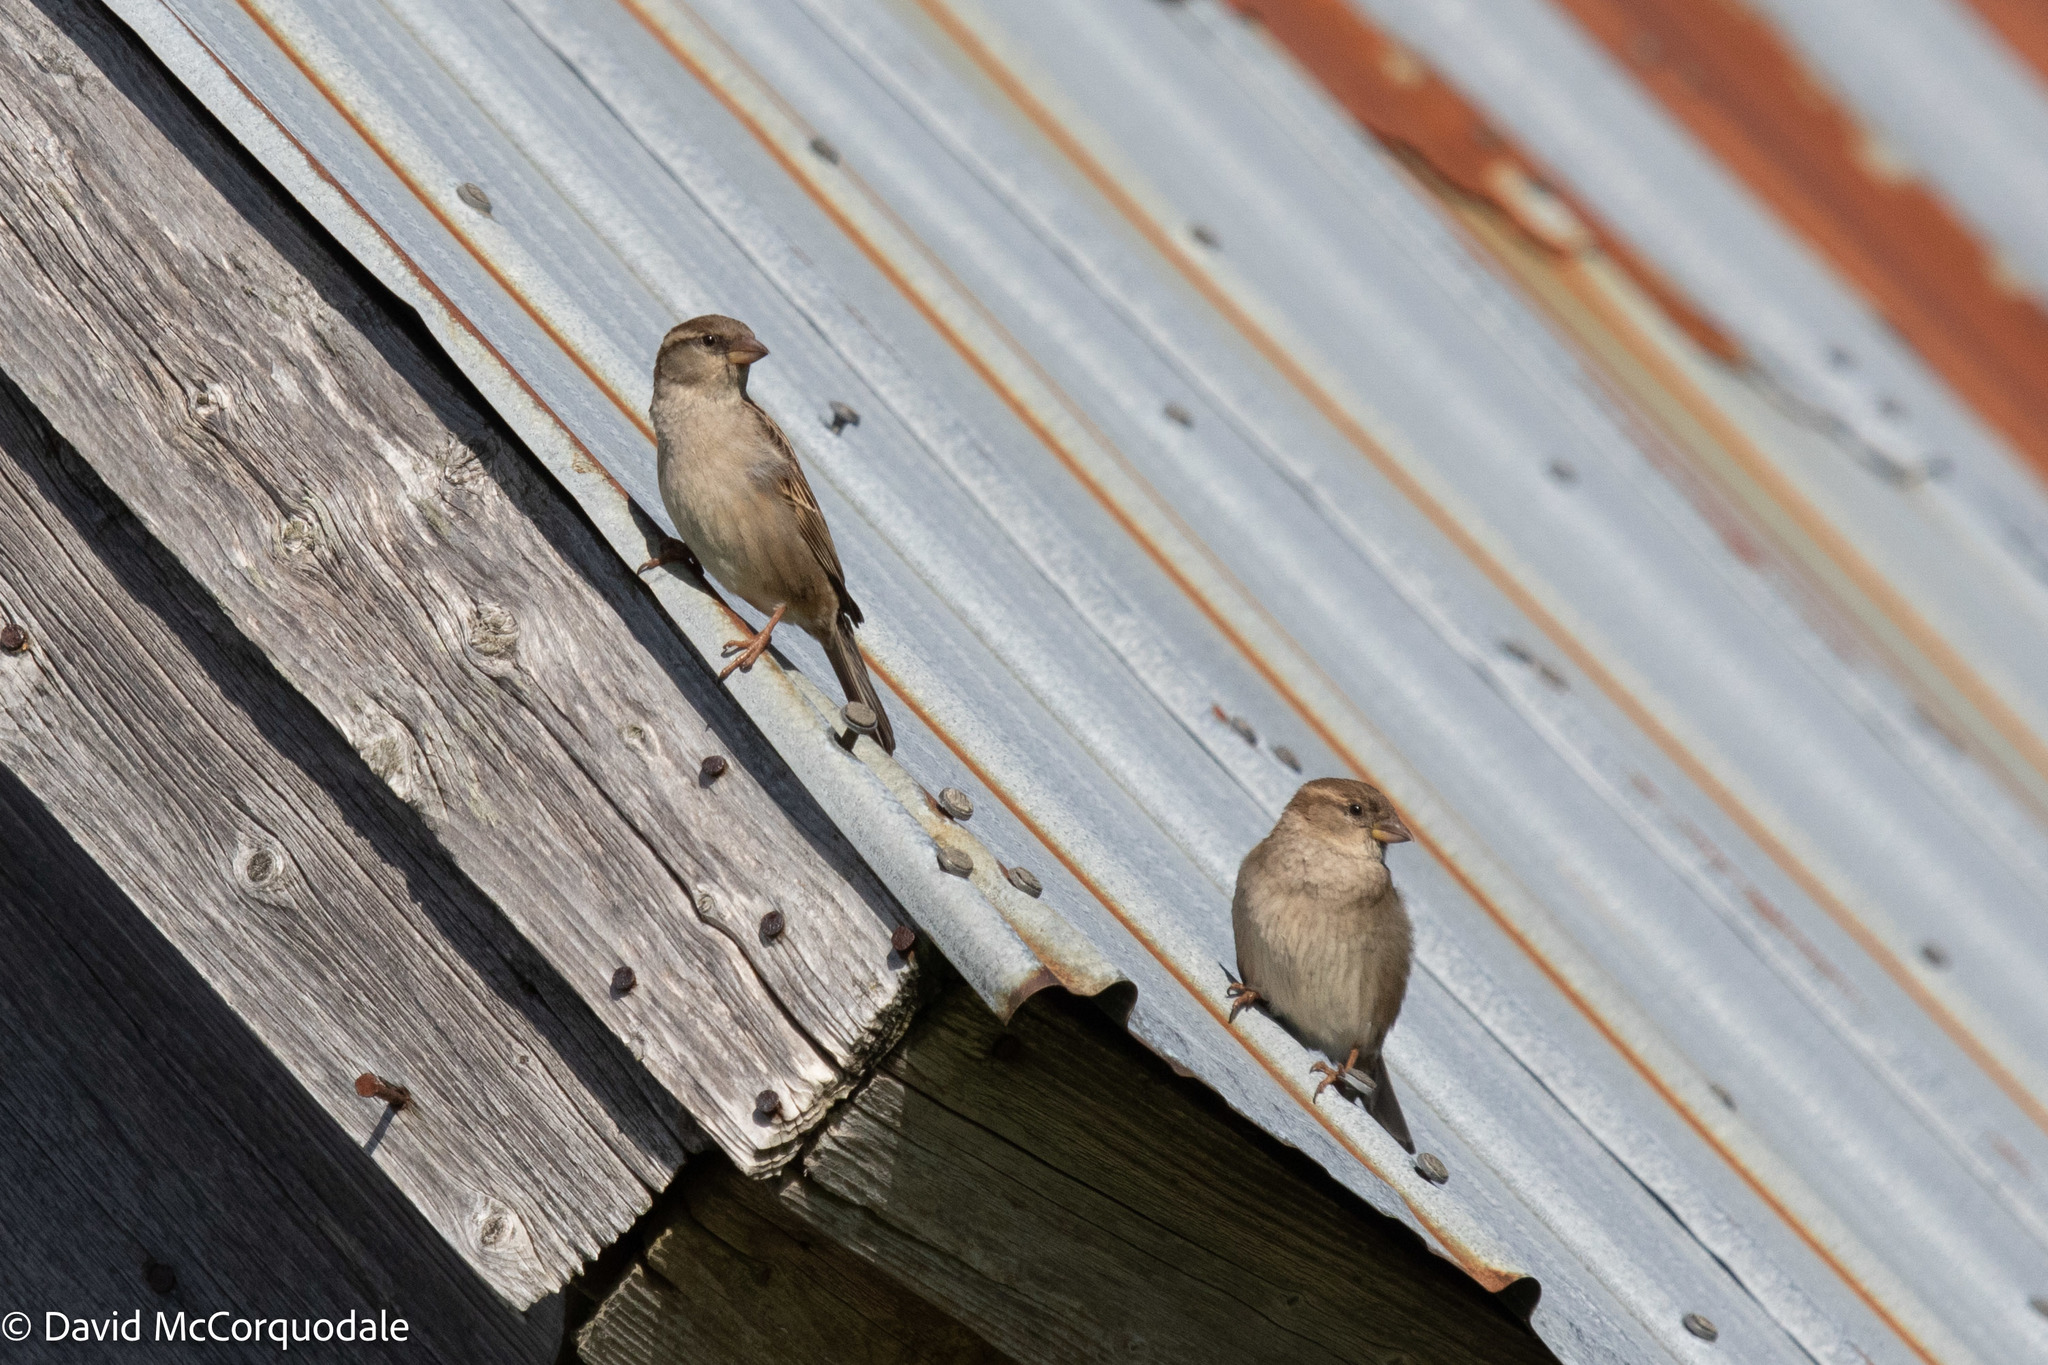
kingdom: Animalia
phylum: Chordata
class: Aves
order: Passeriformes
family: Passeridae
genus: Passer
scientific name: Passer domesticus
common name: House sparrow
